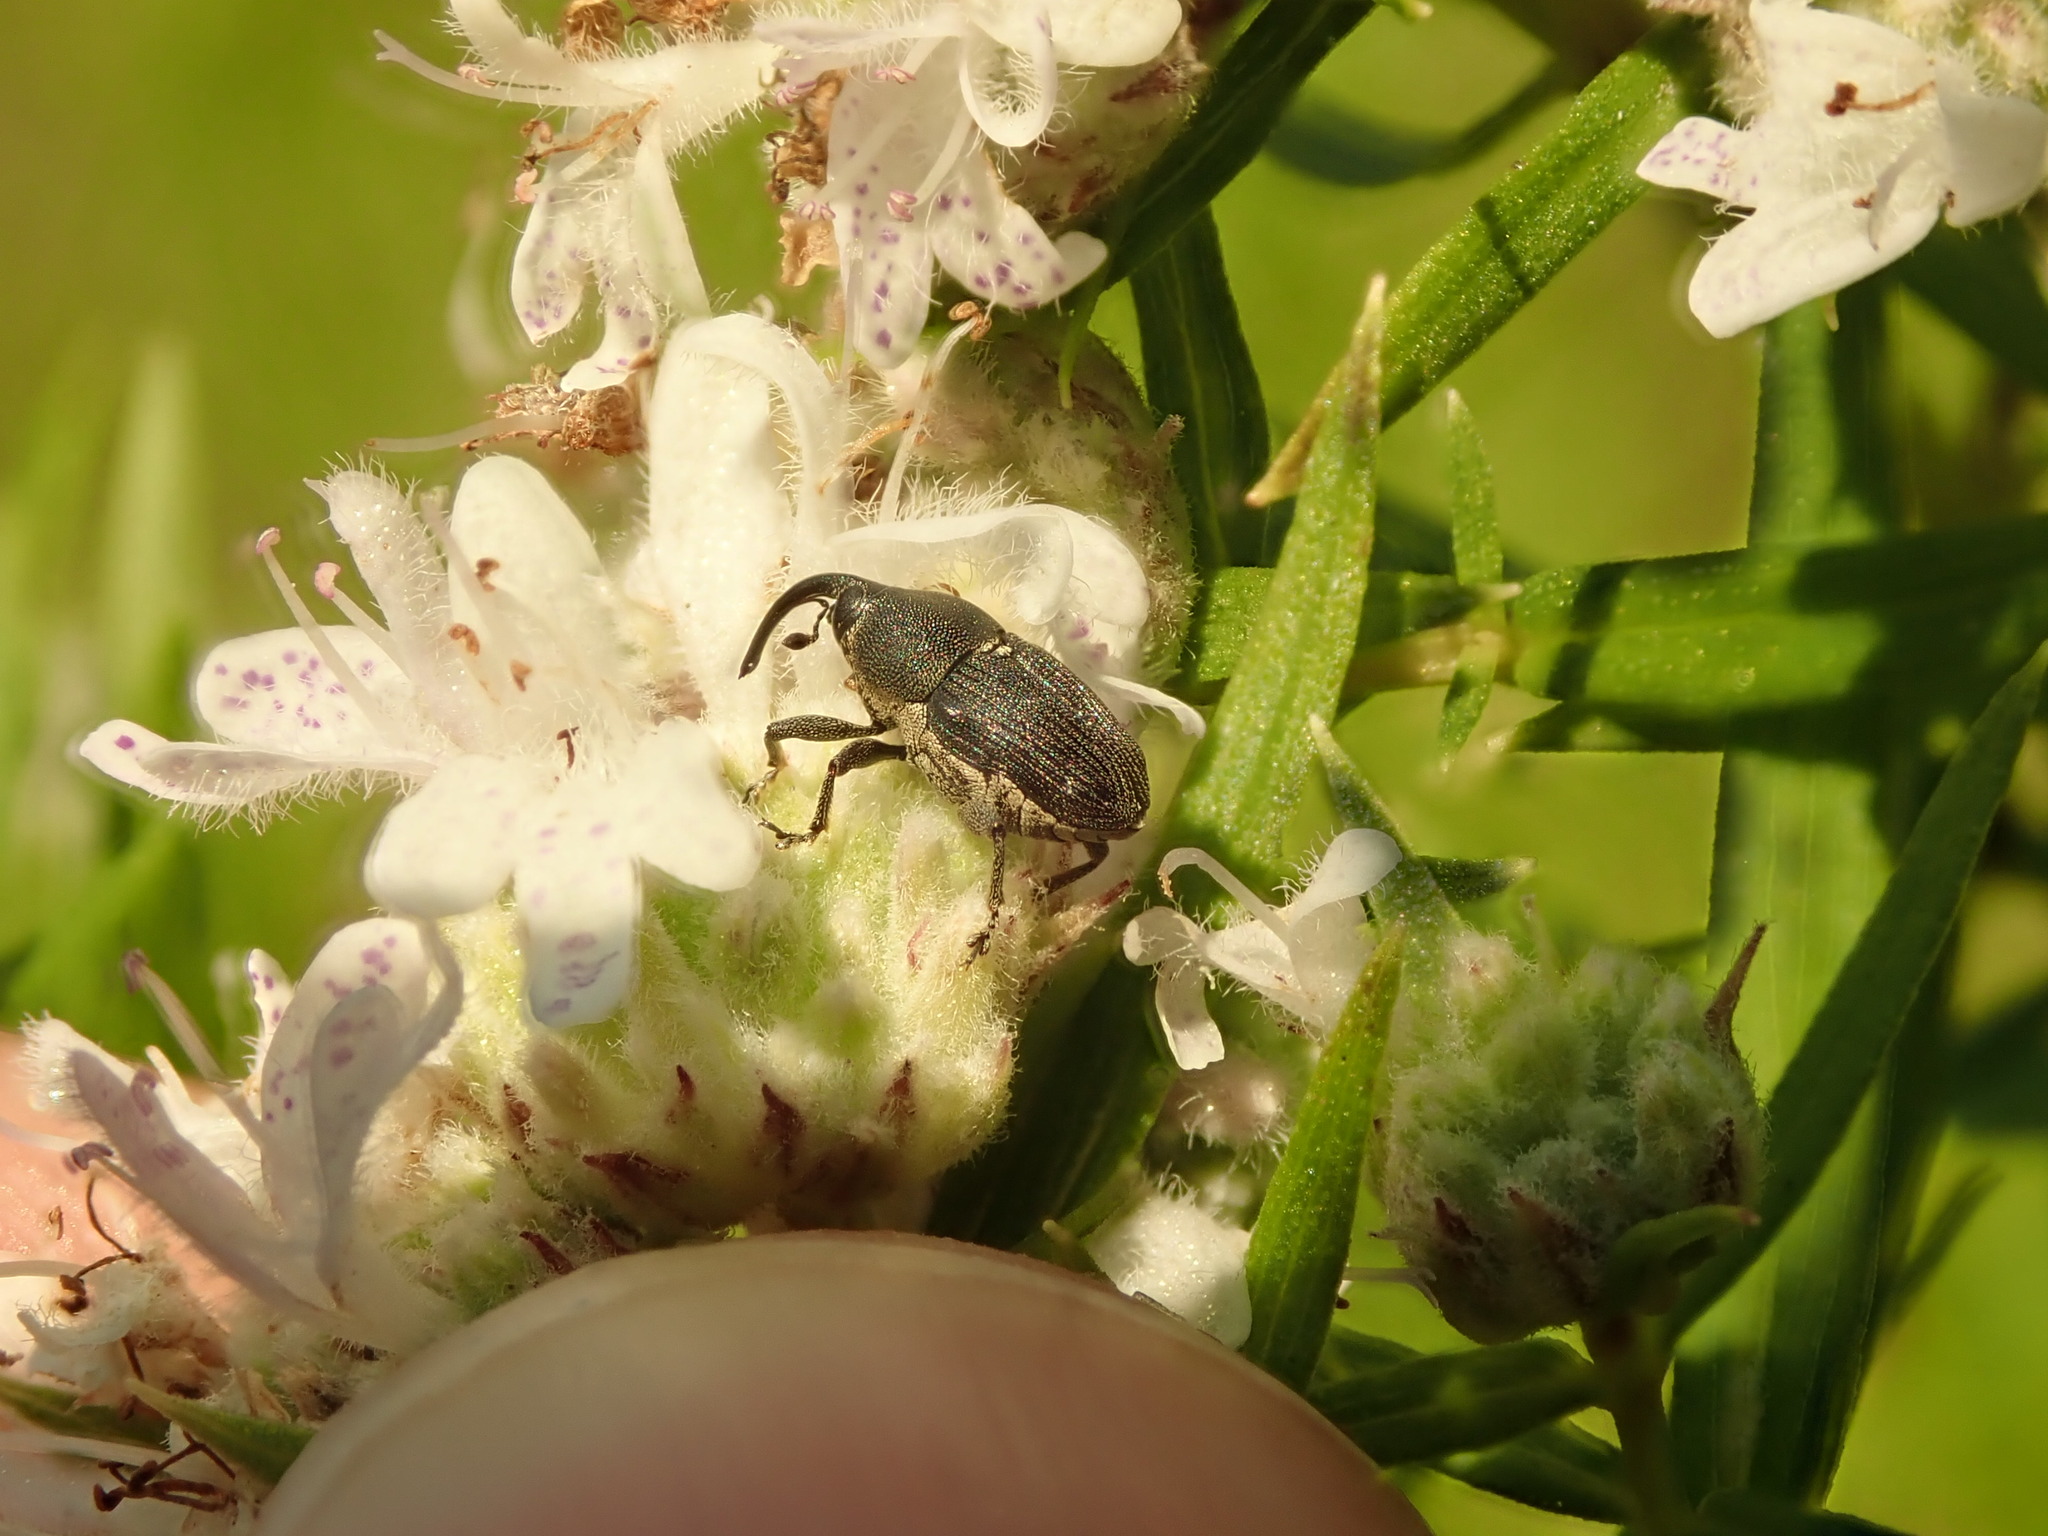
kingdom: Animalia
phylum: Arthropoda
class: Insecta
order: Coleoptera
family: Curculionidae
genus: Odontocorynus
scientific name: Odontocorynus salebrosus
